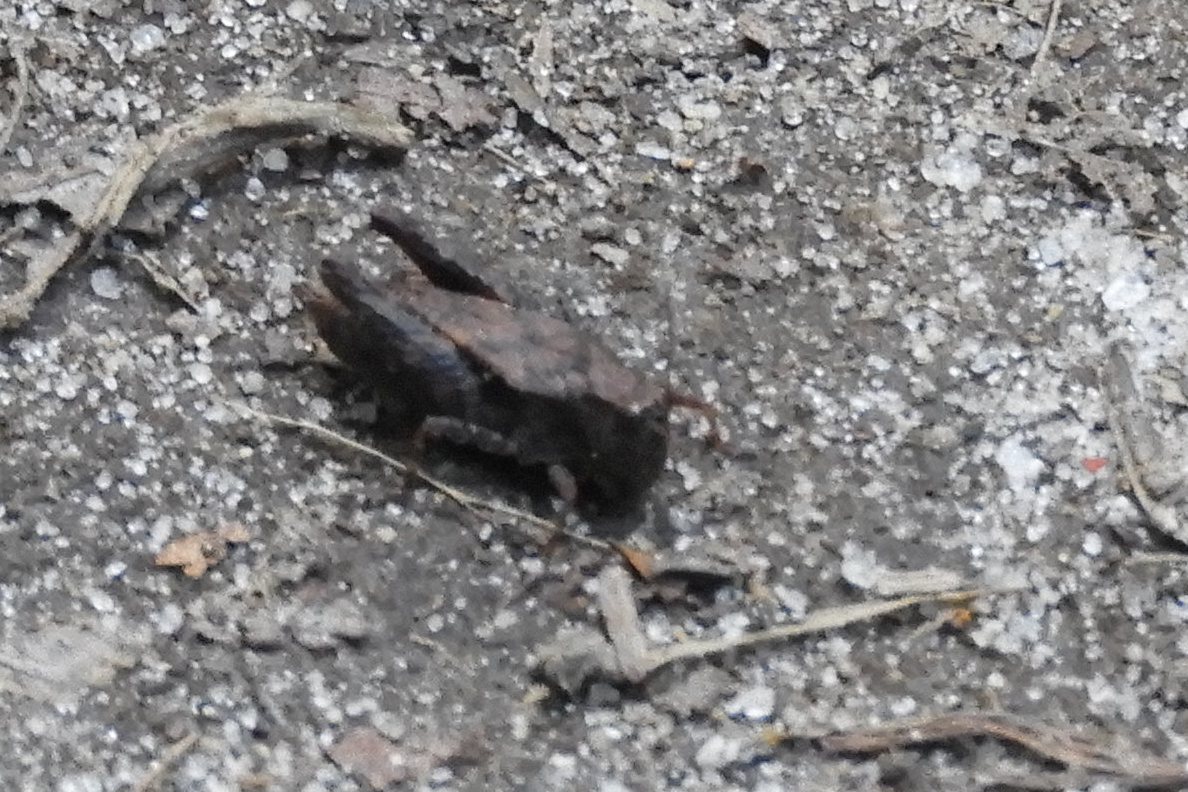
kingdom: Animalia
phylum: Arthropoda
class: Insecta
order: Orthoptera
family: Tetrigidae
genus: Tettigidea
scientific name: Tettigidea laterale
